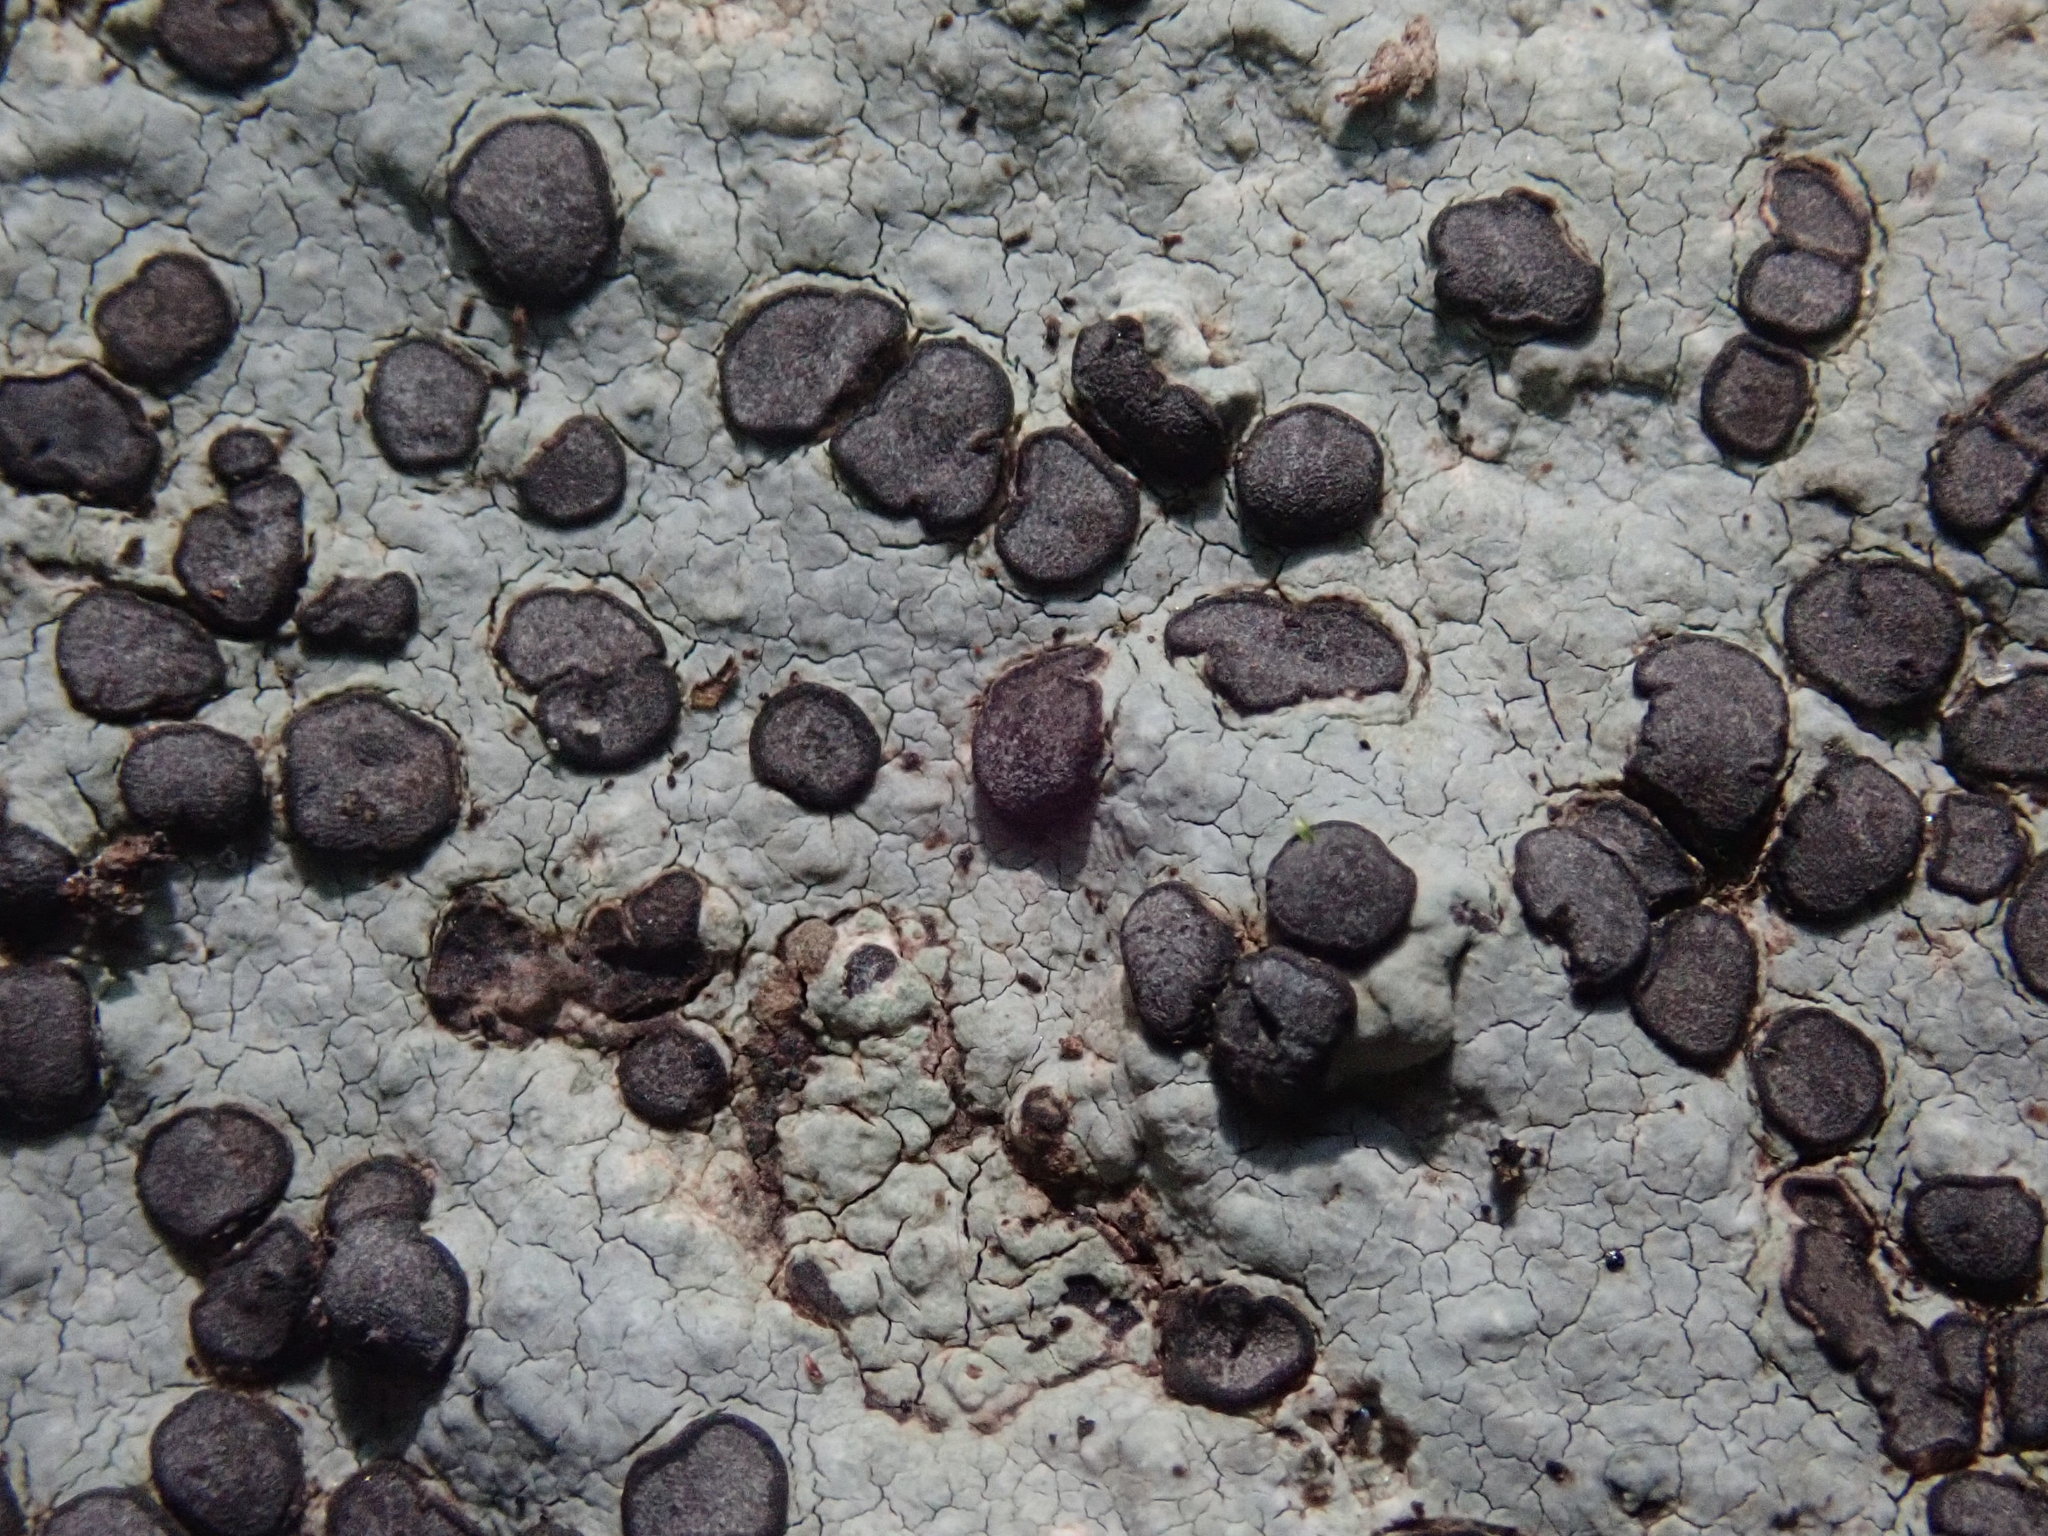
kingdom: Fungi
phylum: Ascomycota
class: Lecanoromycetes
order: Lecideales
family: Lecideaceae
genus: Porpidia
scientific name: Porpidia albocaerulescens
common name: Smokey-eyed boulder lichen
